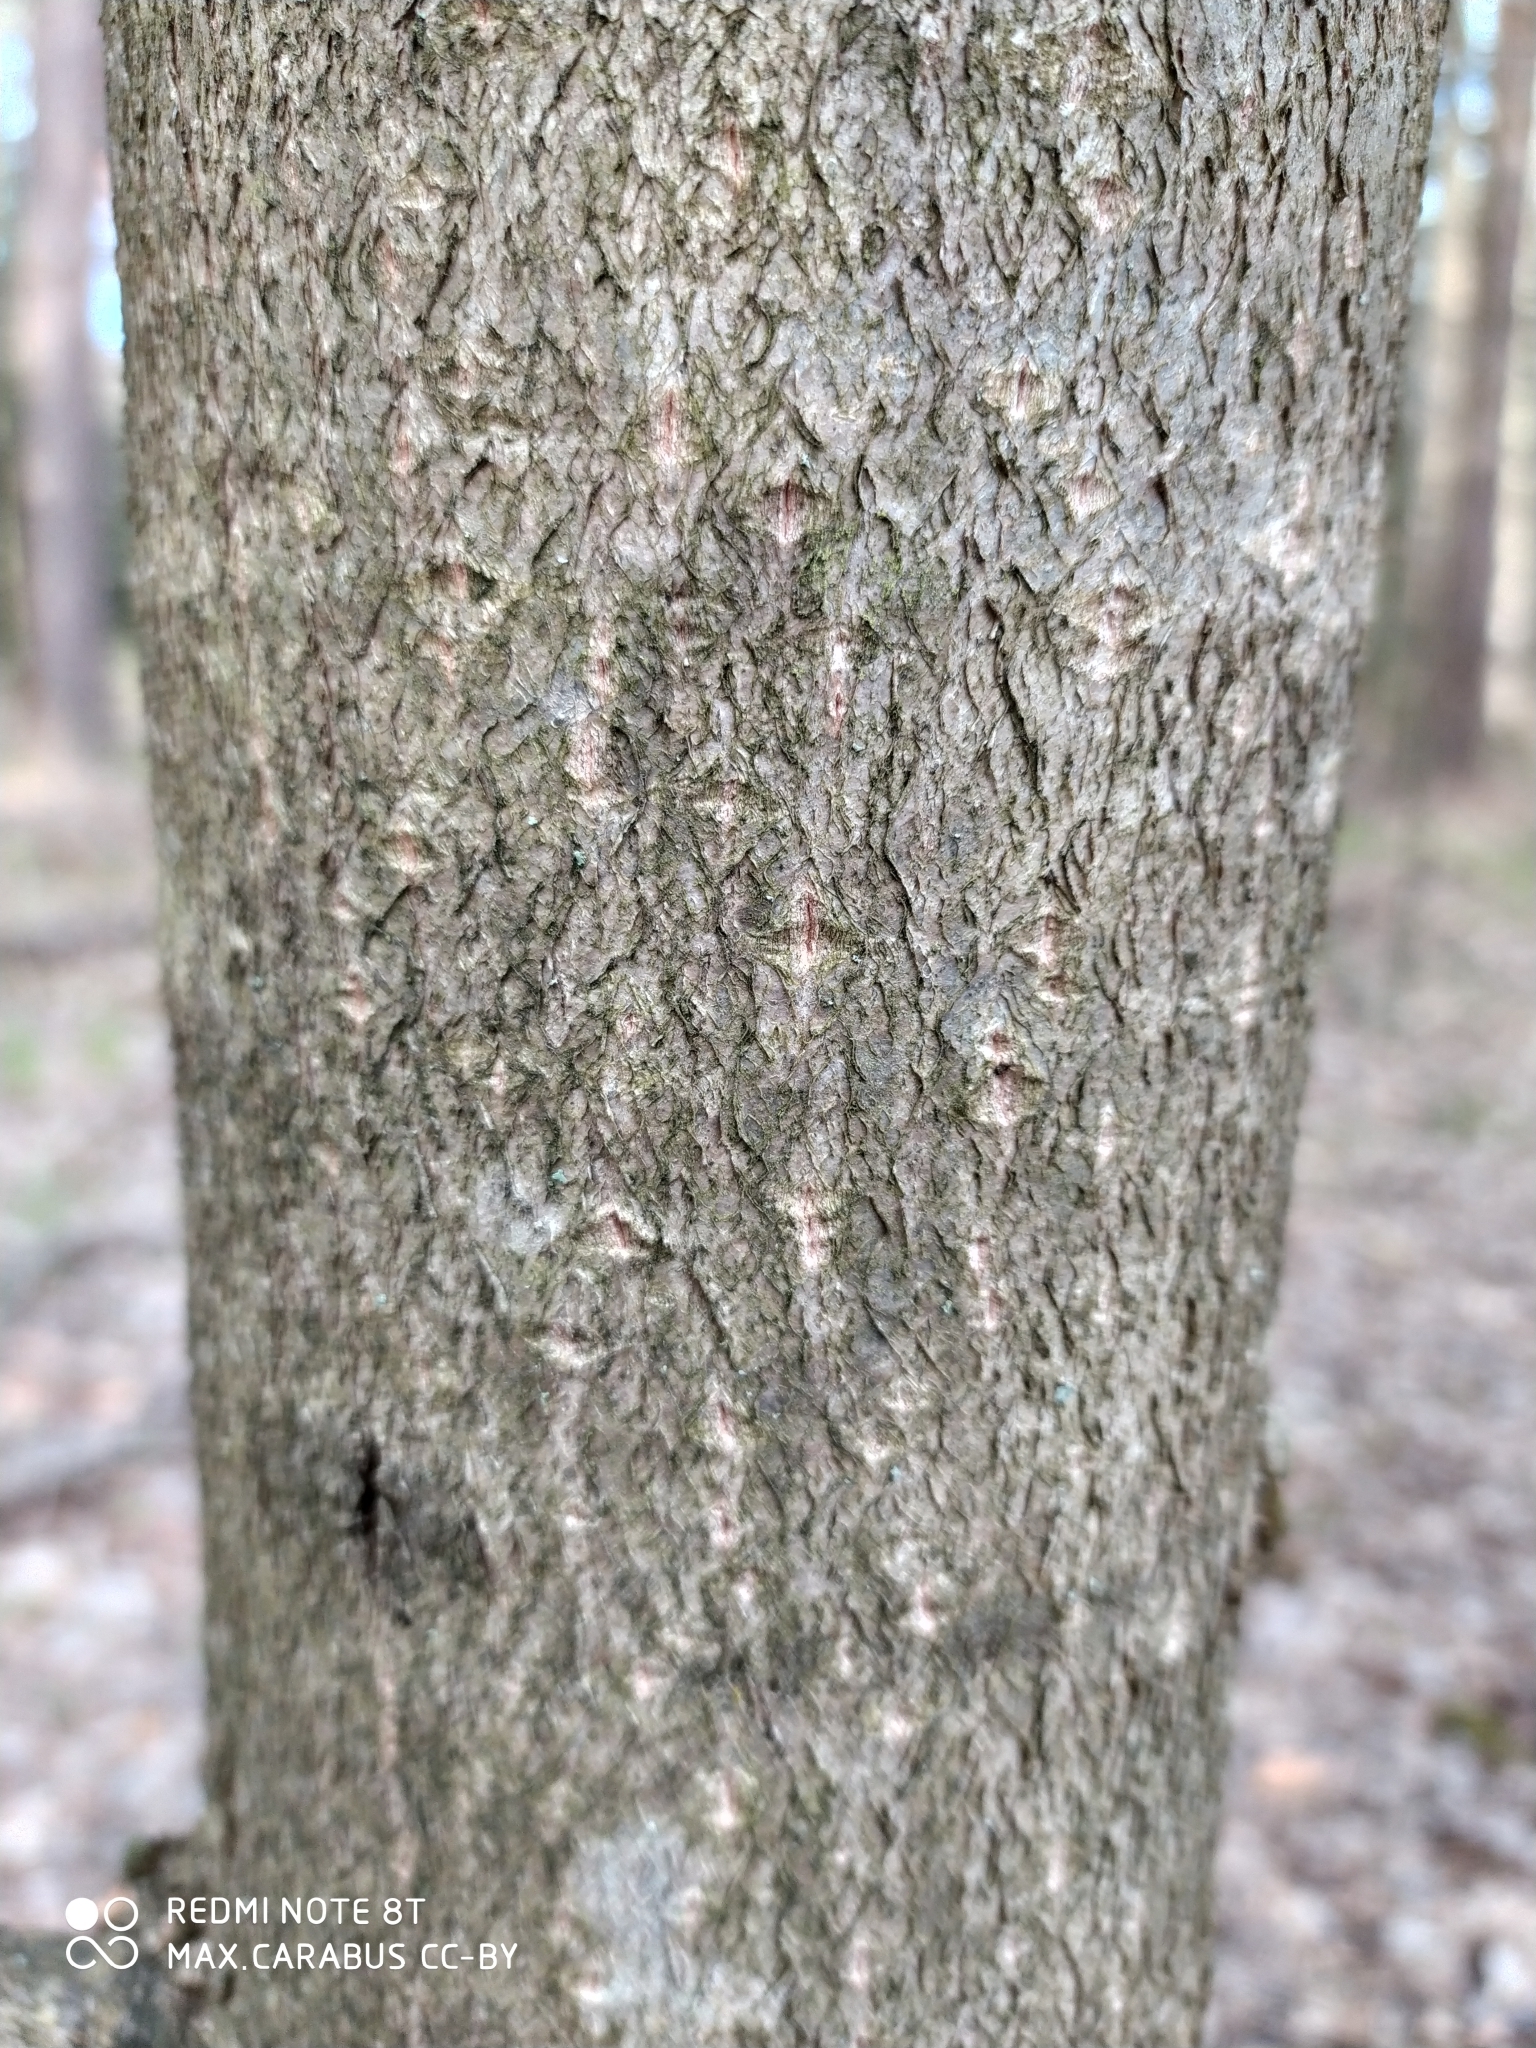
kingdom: Plantae
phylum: Tracheophyta
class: Magnoliopsida
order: Malvales
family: Malvaceae
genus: Tilia
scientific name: Tilia cordata
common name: Small-leaved lime
